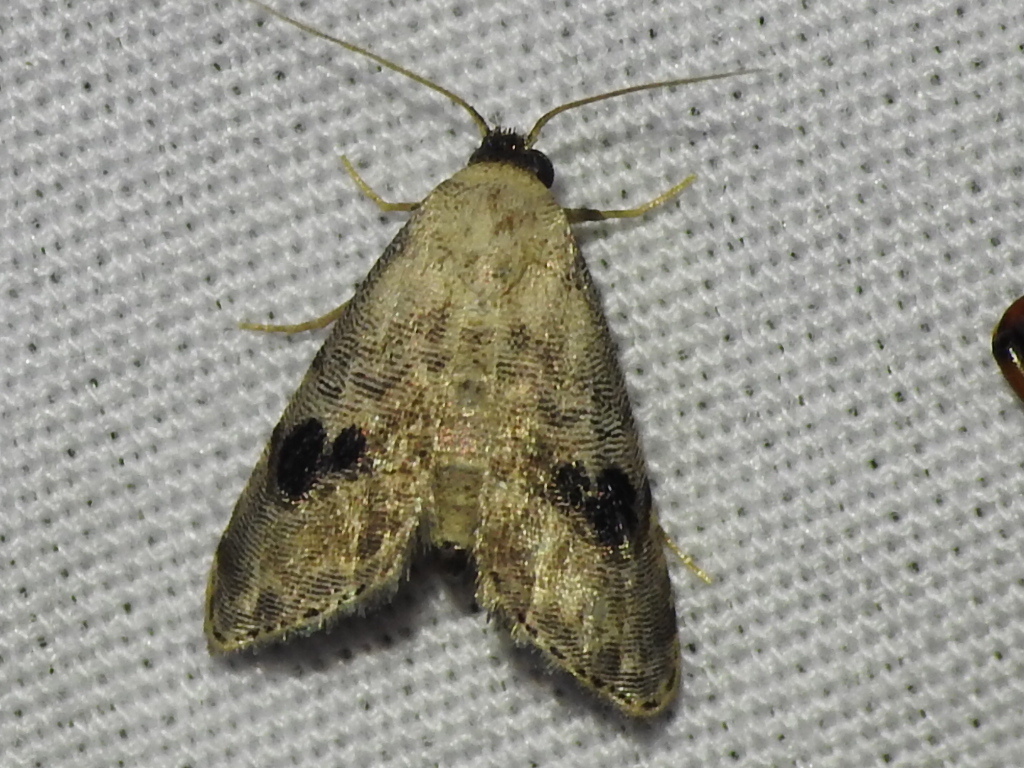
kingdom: Animalia
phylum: Arthropoda
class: Insecta
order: Lepidoptera
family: Noctuidae
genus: Abablemma
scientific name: Abablemma duomaculata
